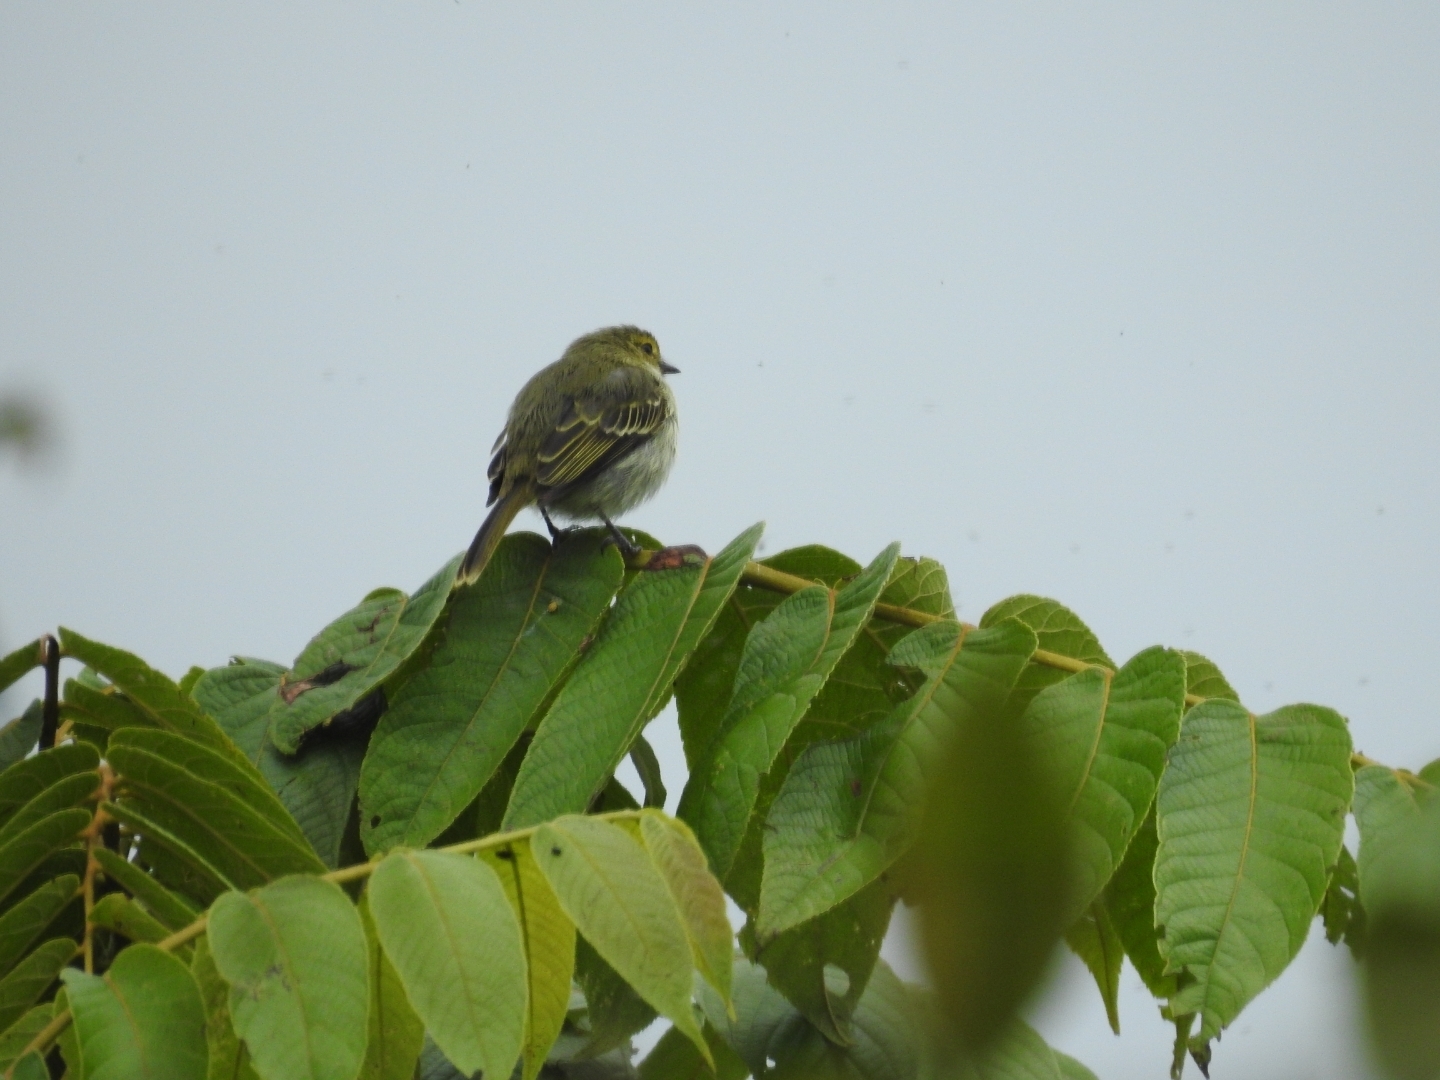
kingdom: Animalia
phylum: Chordata
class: Aves
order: Passeriformes
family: Tyrannidae
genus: Zimmerius
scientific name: Zimmerius chrysops
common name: Golden-faced tyrannulet
